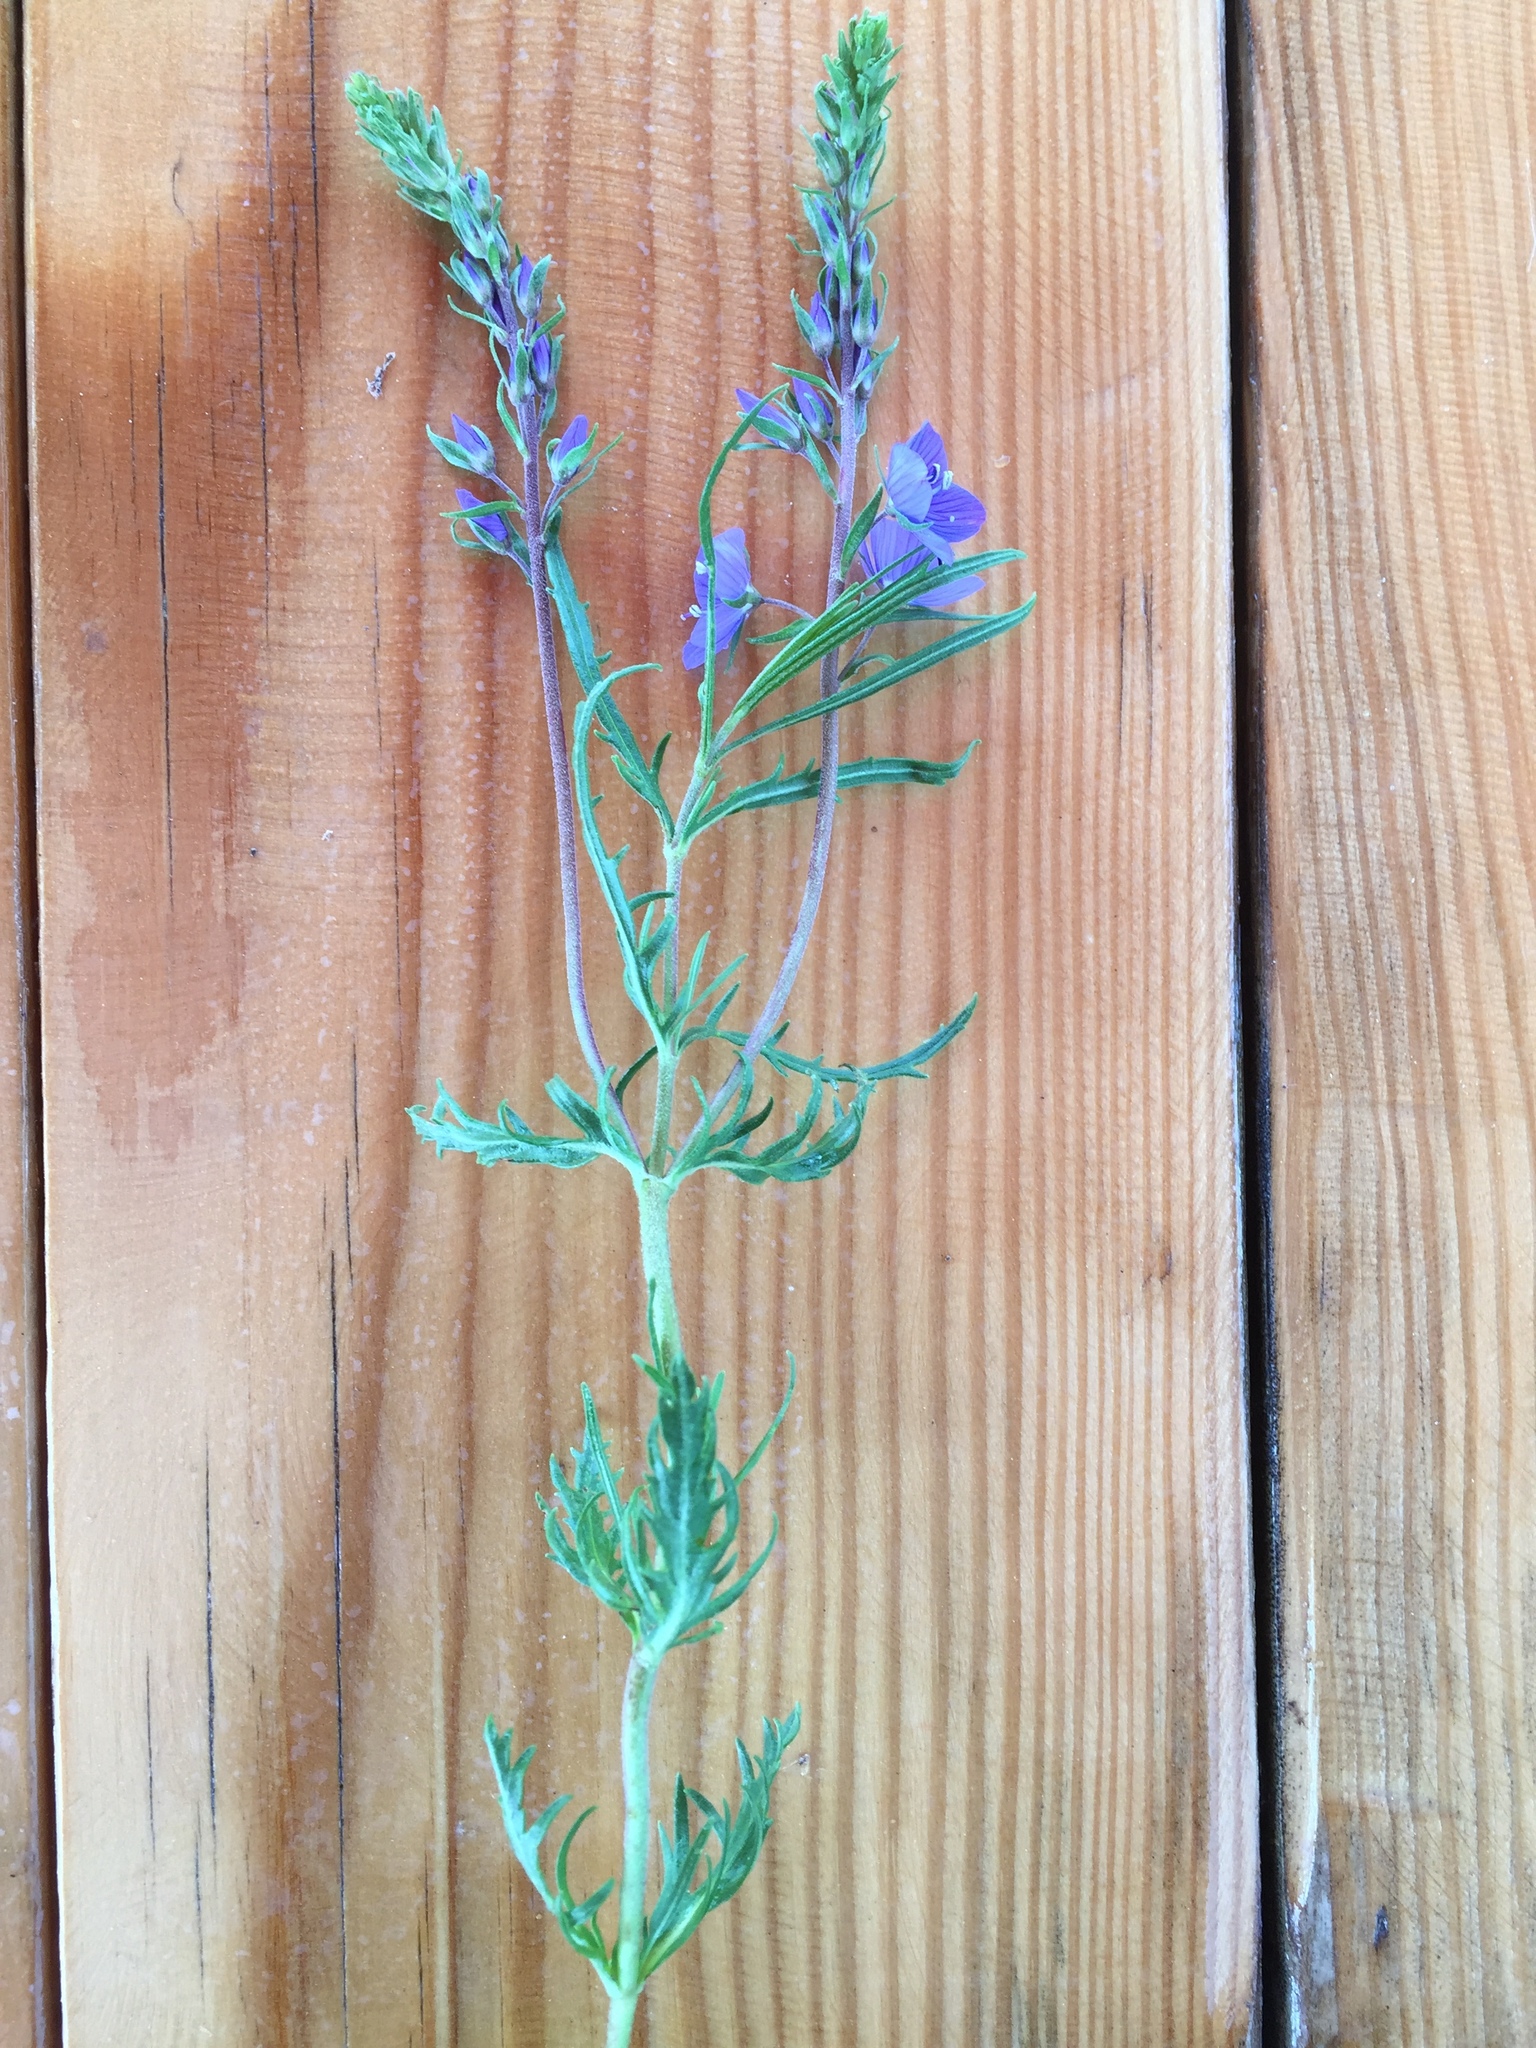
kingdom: Plantae
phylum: Tracheophyta
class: Magnoliopsida
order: Lamiales
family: Plantaginaceae
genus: Veronica
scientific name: Veronica multifida
